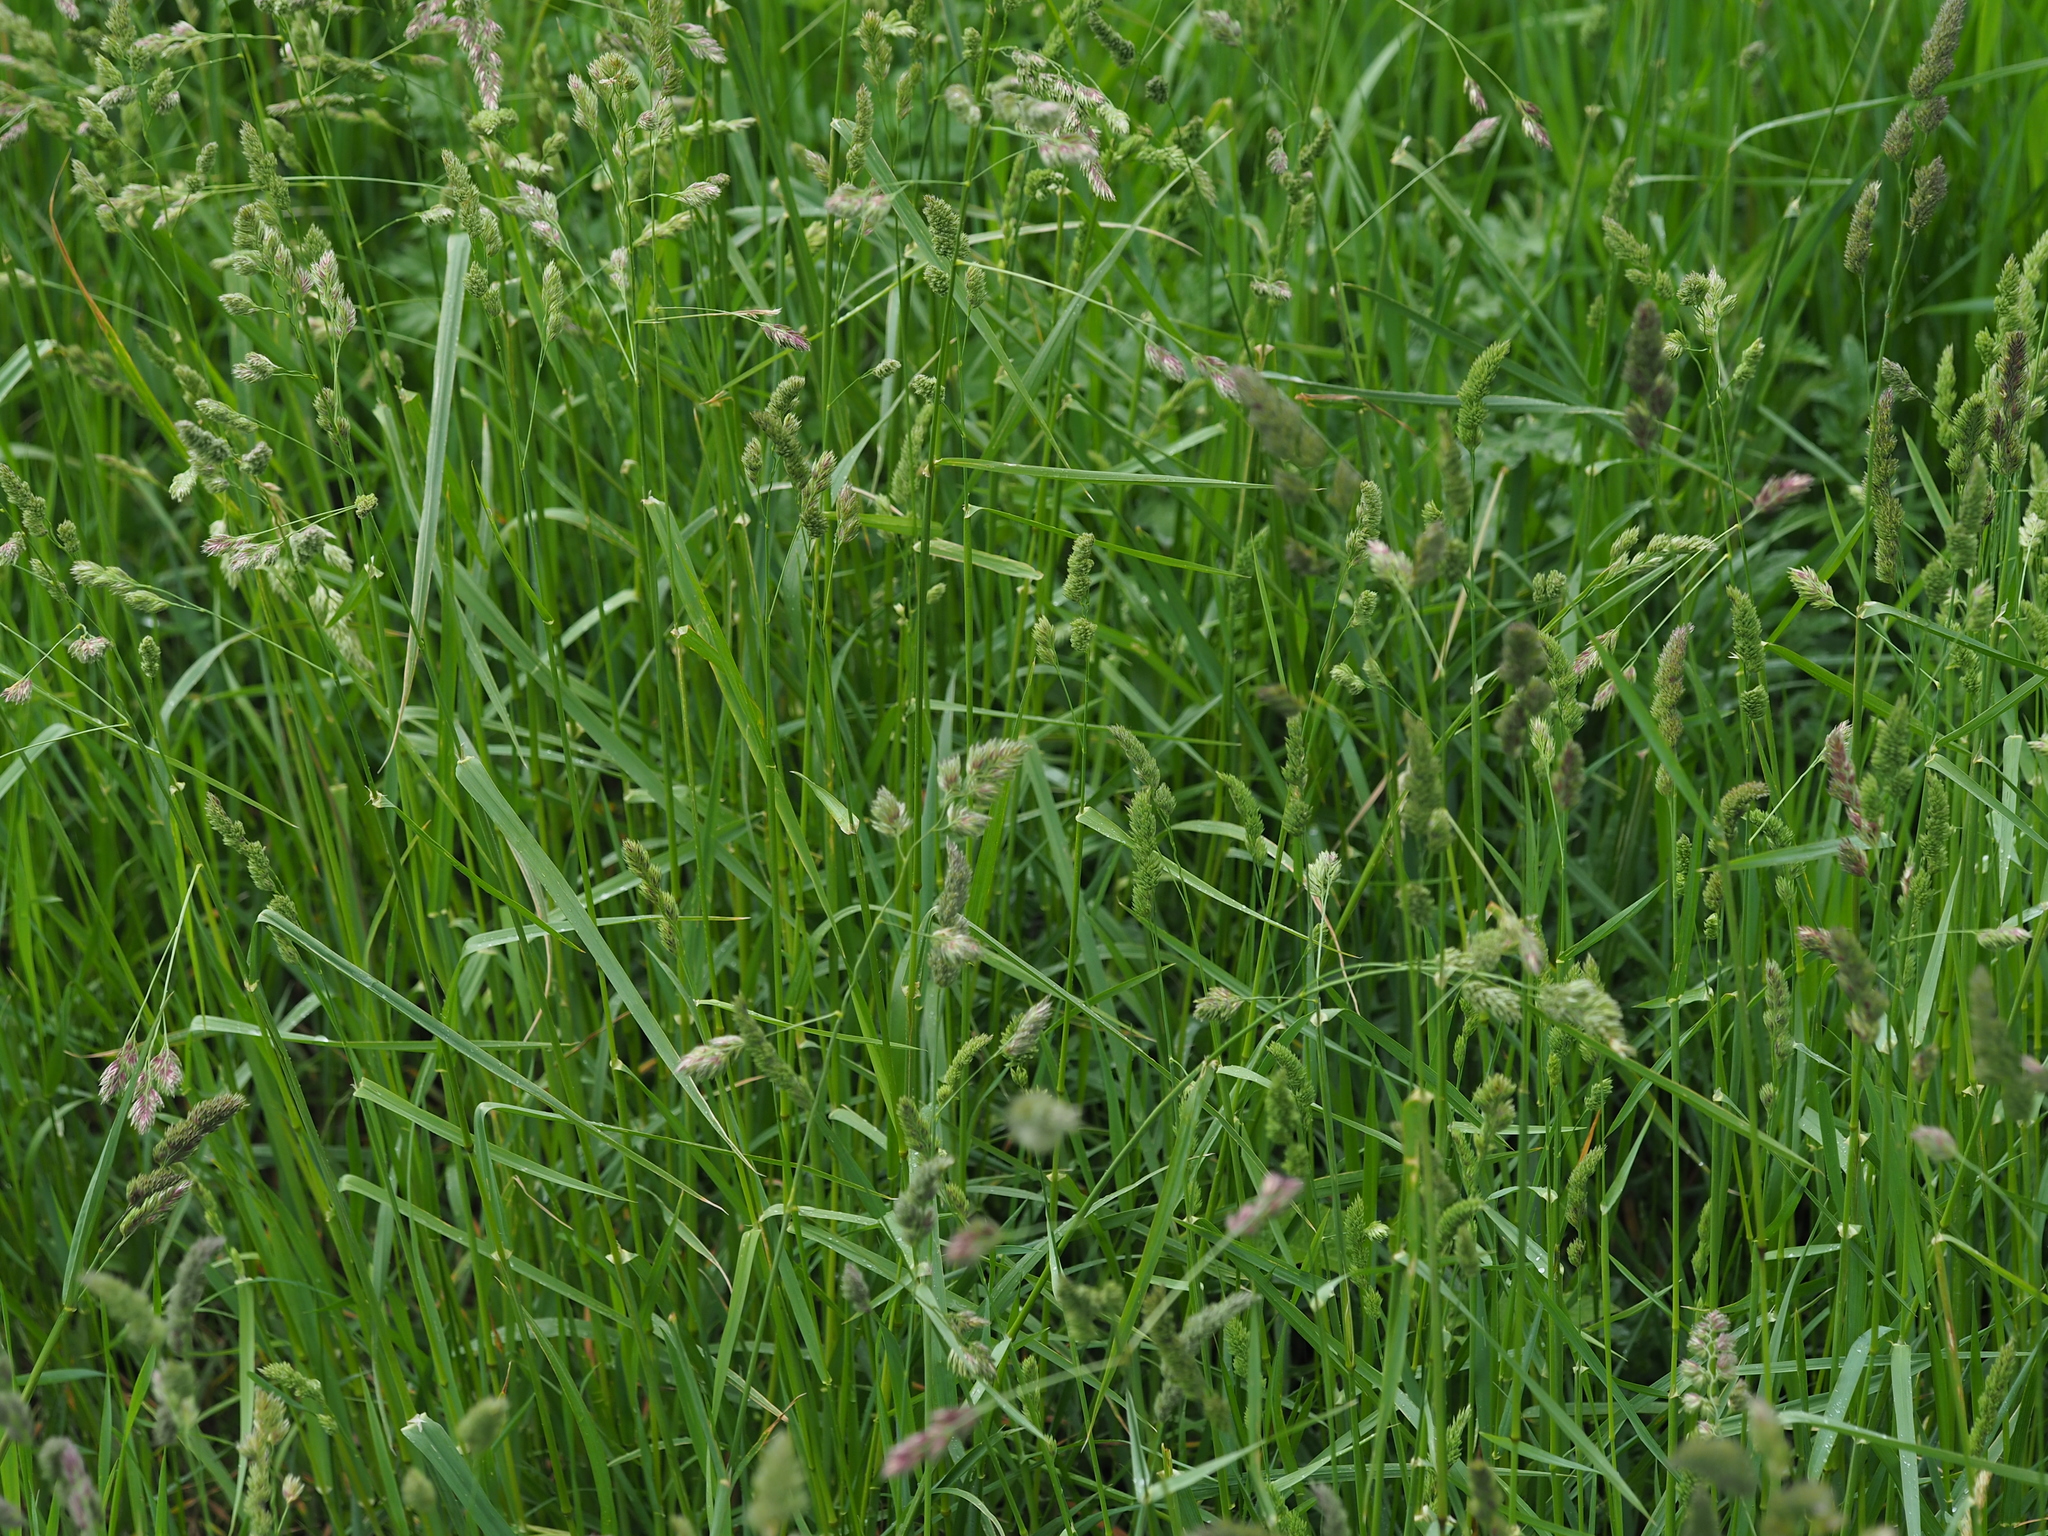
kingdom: Plantae
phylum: Tracheophyta
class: Liliopsida
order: Poales
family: Poaceae
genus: Dactylis
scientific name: Dactylis glomerata
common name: Orchardgrass
